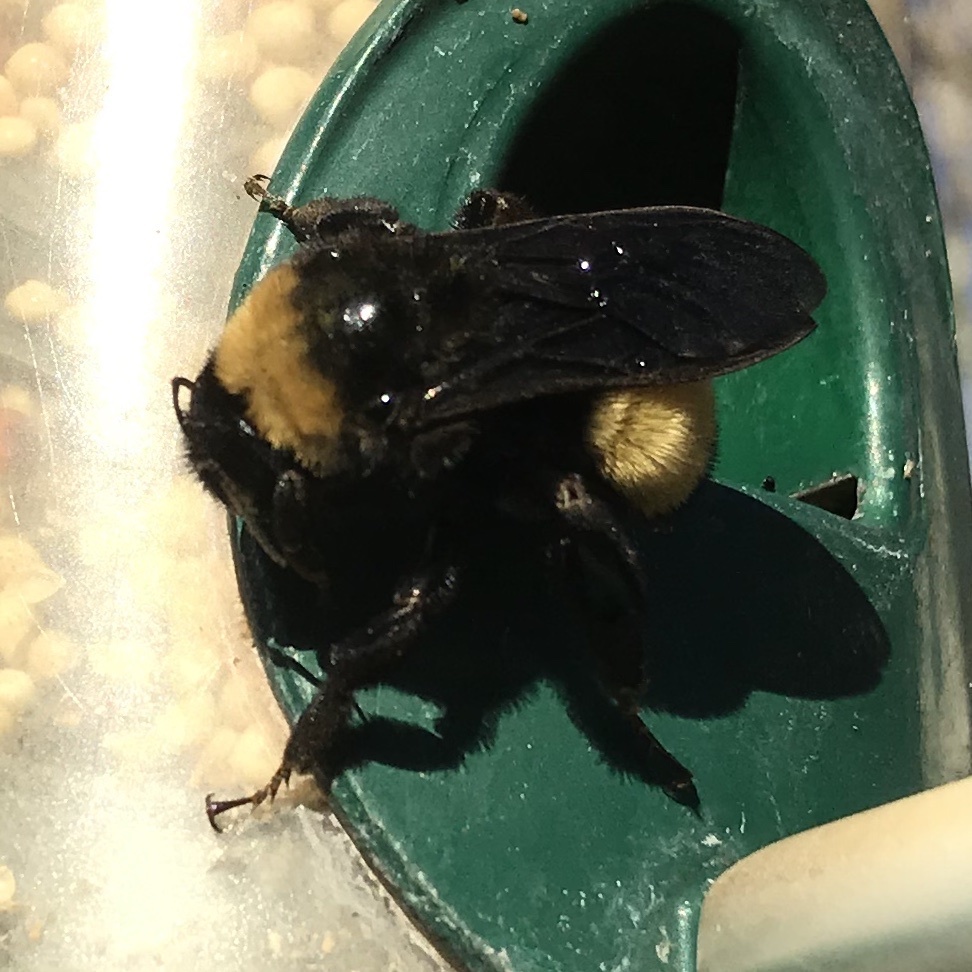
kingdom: Animalia
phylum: Arthropoda
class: Insecta
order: Hymenoptera
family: Apidae
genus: Bombus
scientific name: Bombus pensylvanicus
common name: Bumble bee
